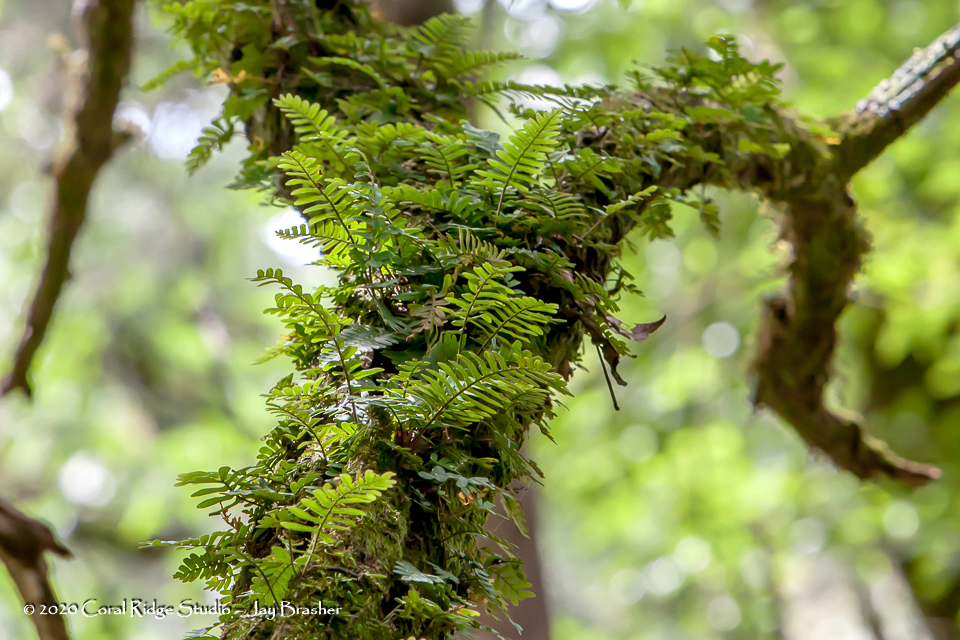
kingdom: Plantae
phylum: Tracheophyta
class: Polypodiopsida
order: Polypodiales
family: Polypodiaceae
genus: Pleopeltis
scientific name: Pleopeltis michauxiana
